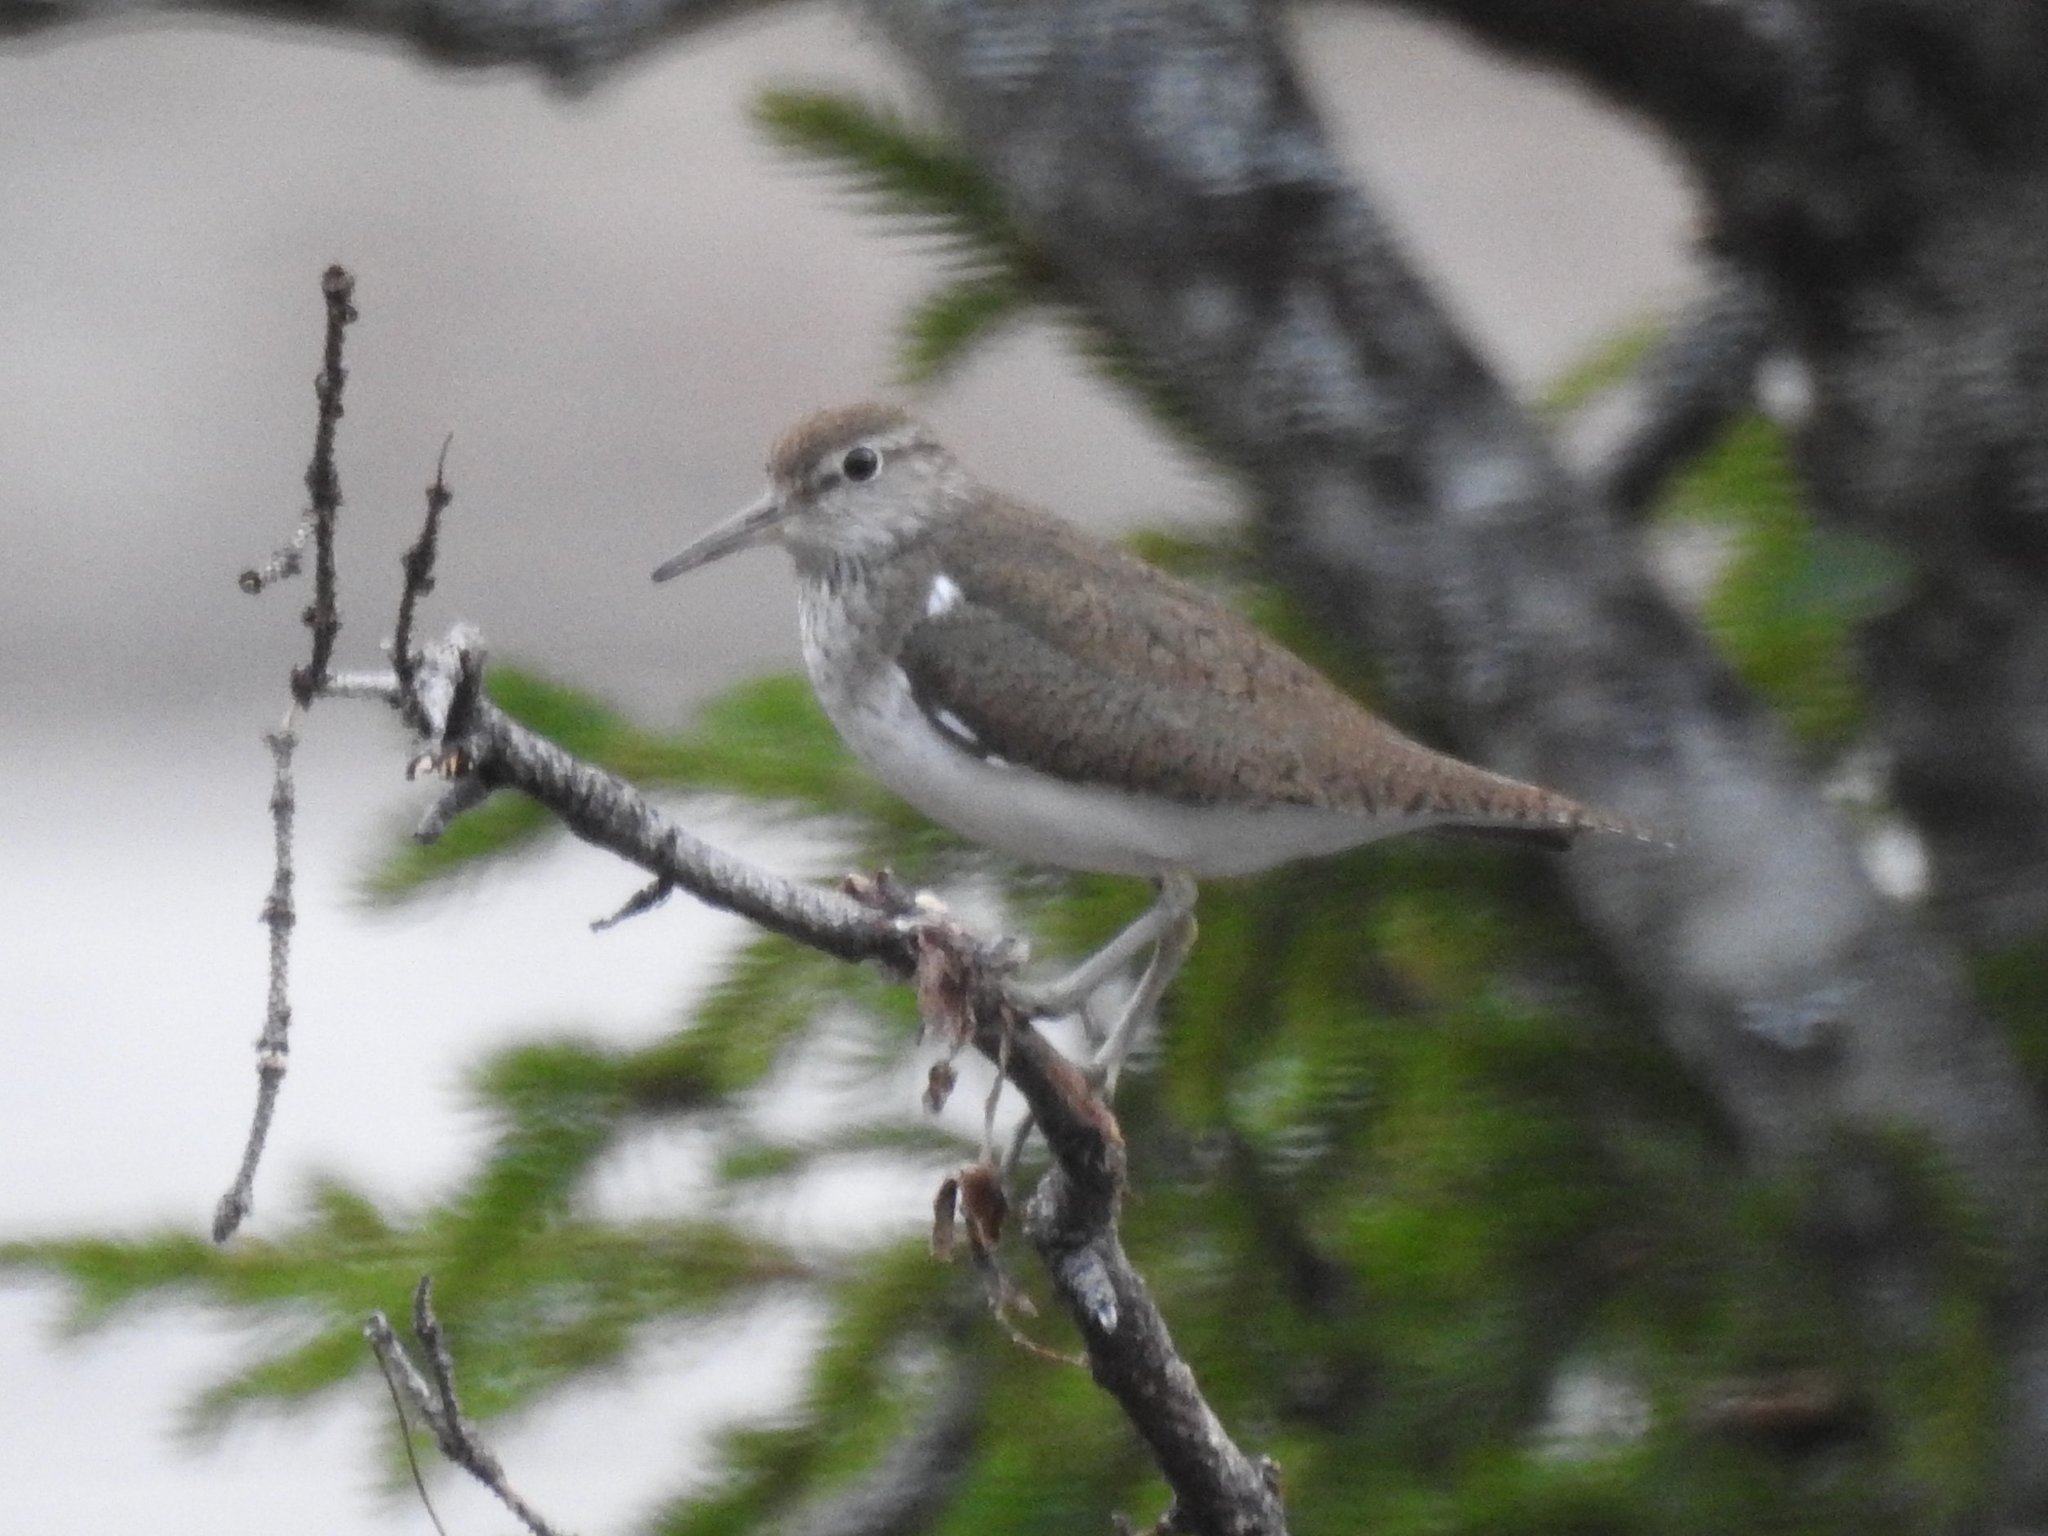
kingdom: Animalia
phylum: Chordata
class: Aves
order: Charadriiformes
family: Scolopacidae
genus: Actitis
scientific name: Actitis hypoleucos
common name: Common sandpiper
